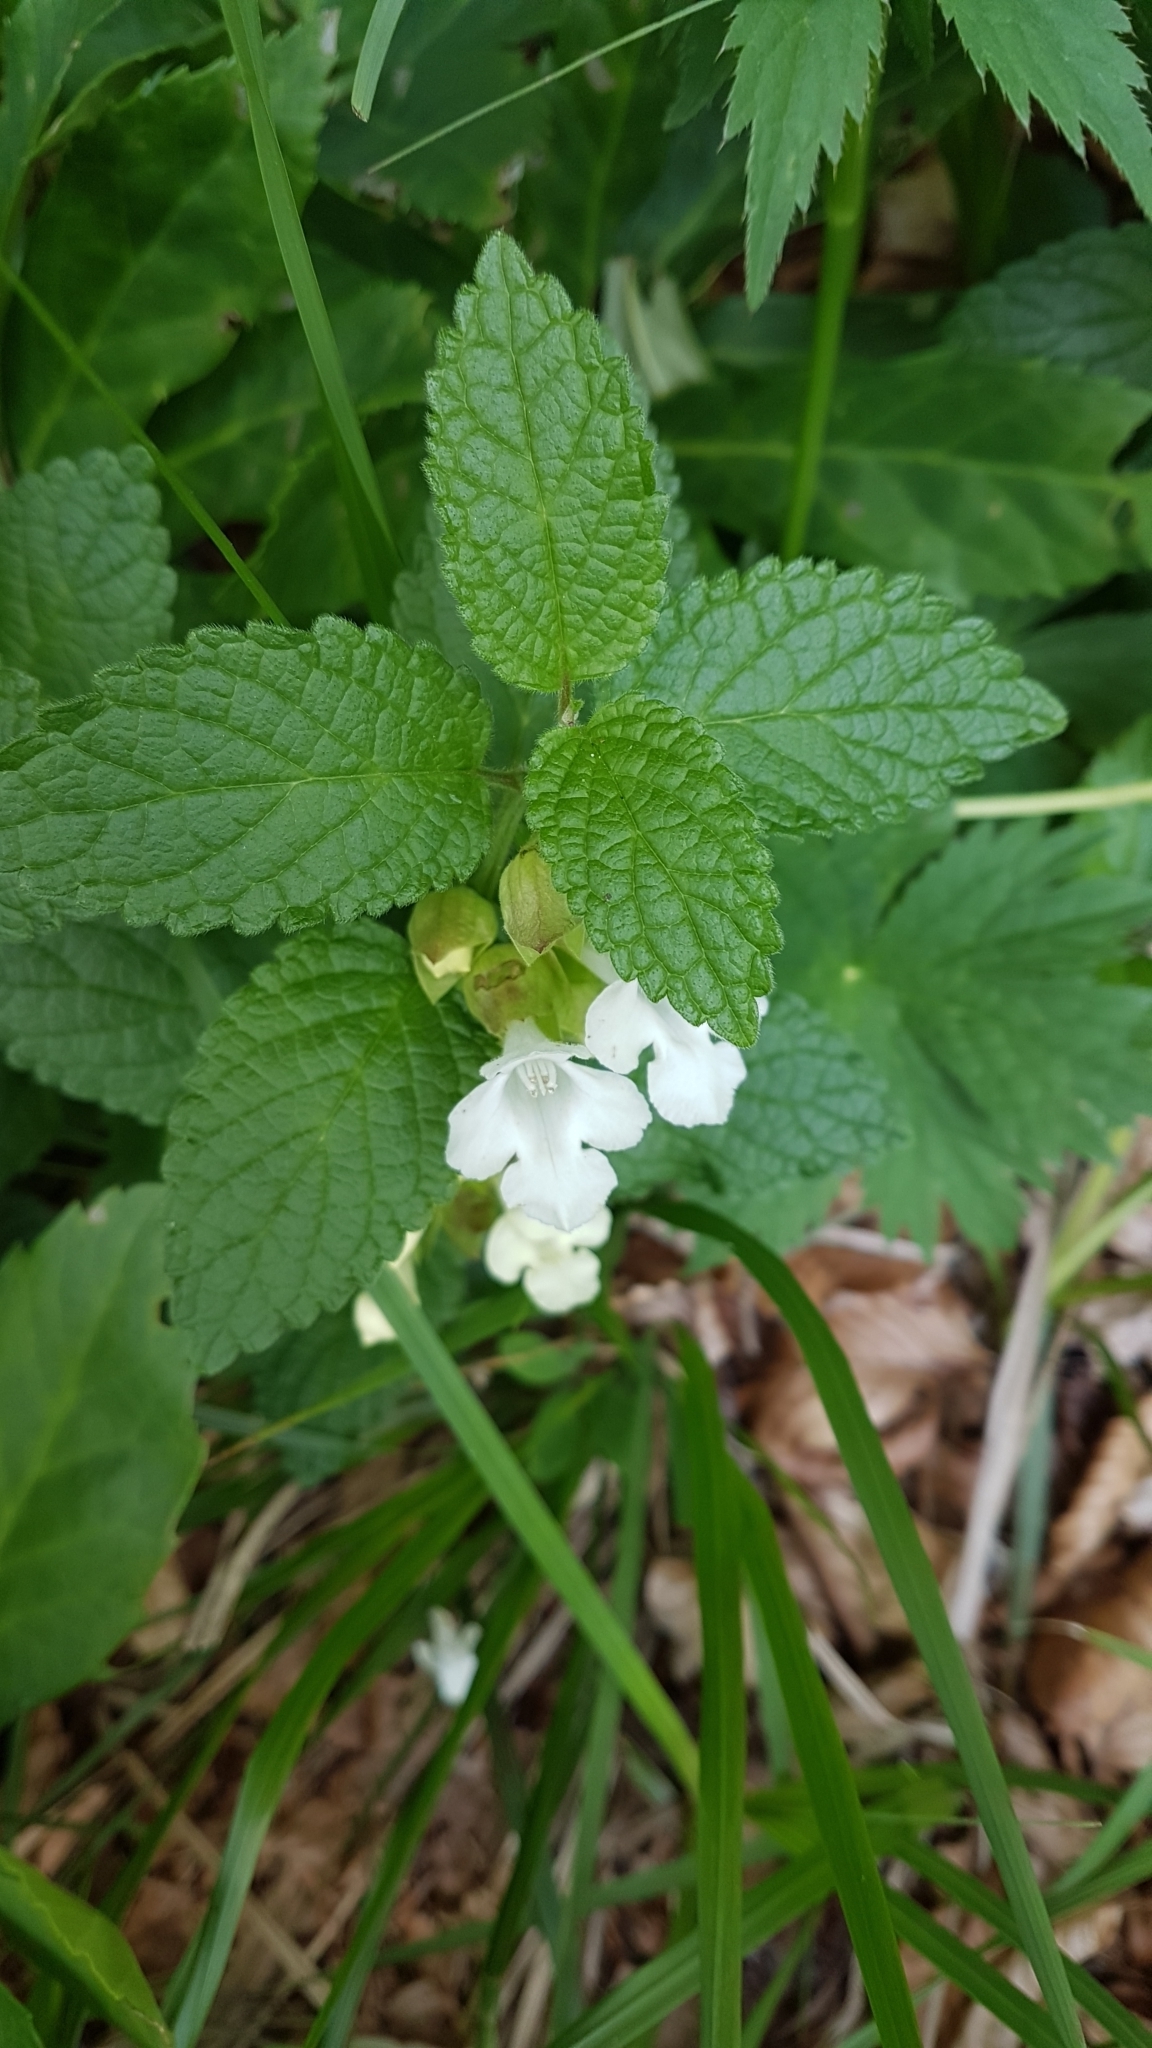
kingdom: Plantae
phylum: Tracheophyta
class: Magnoliopsida
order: Lamiales
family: Lamiaceae
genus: Melittis
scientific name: Melittis melissophyllum
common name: Bastard balm
